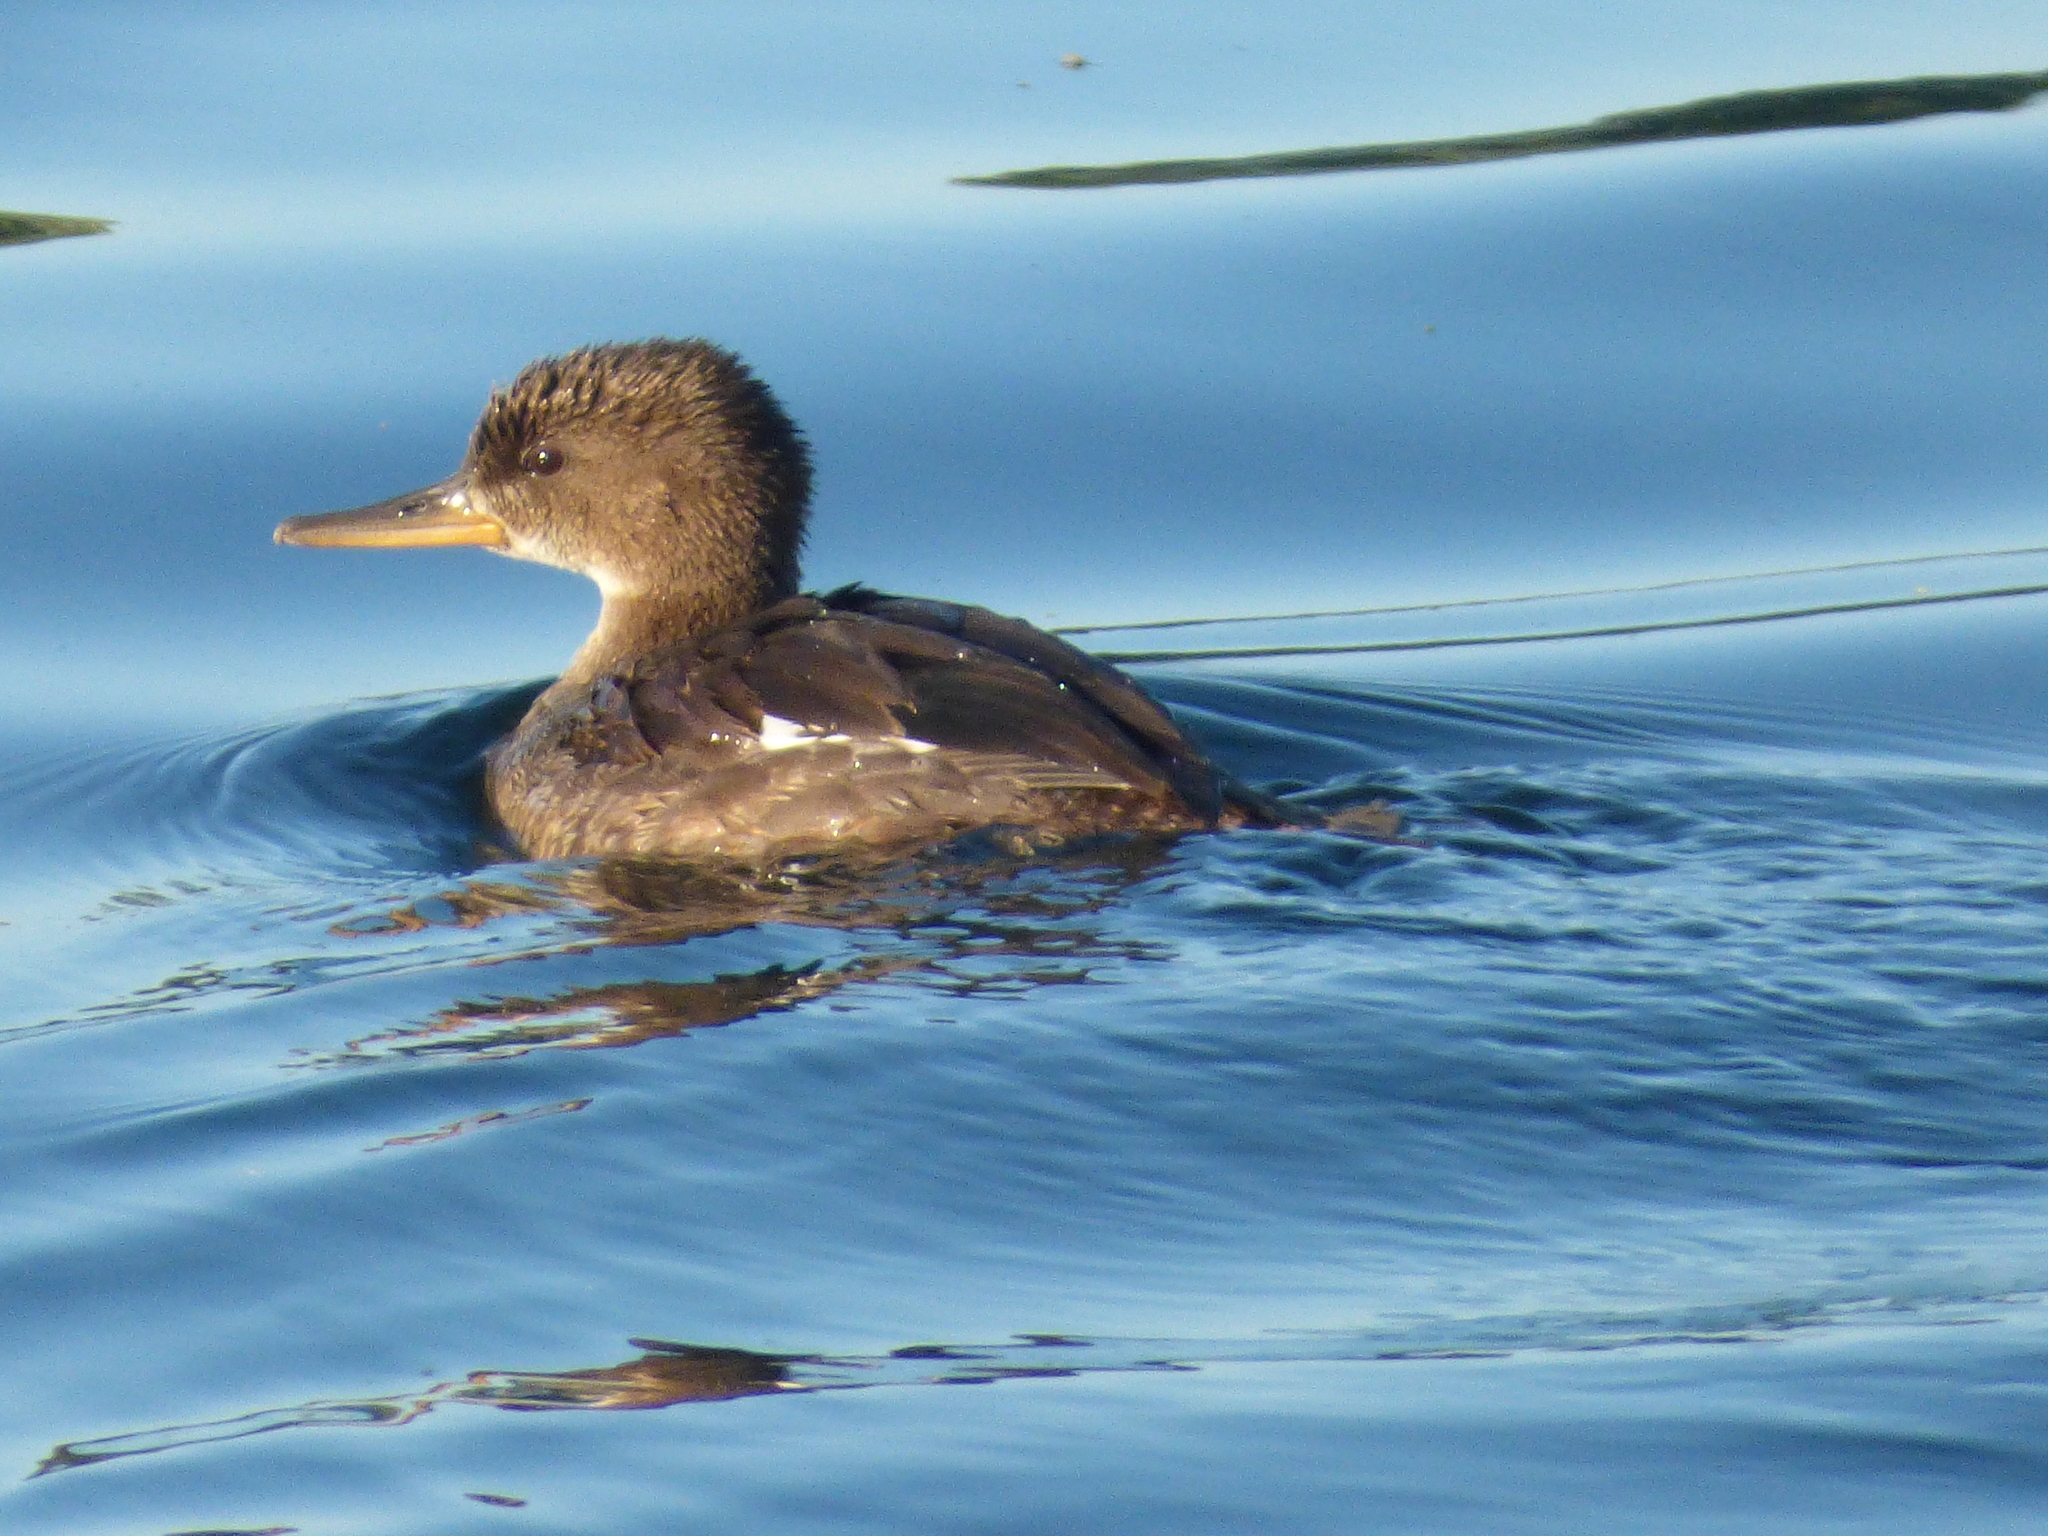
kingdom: Animalia
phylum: Chordata
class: Aves
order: Anseriformes
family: Anatidae
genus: Lophodytes
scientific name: Lophodytes cucullatus
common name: Hooded merganser
